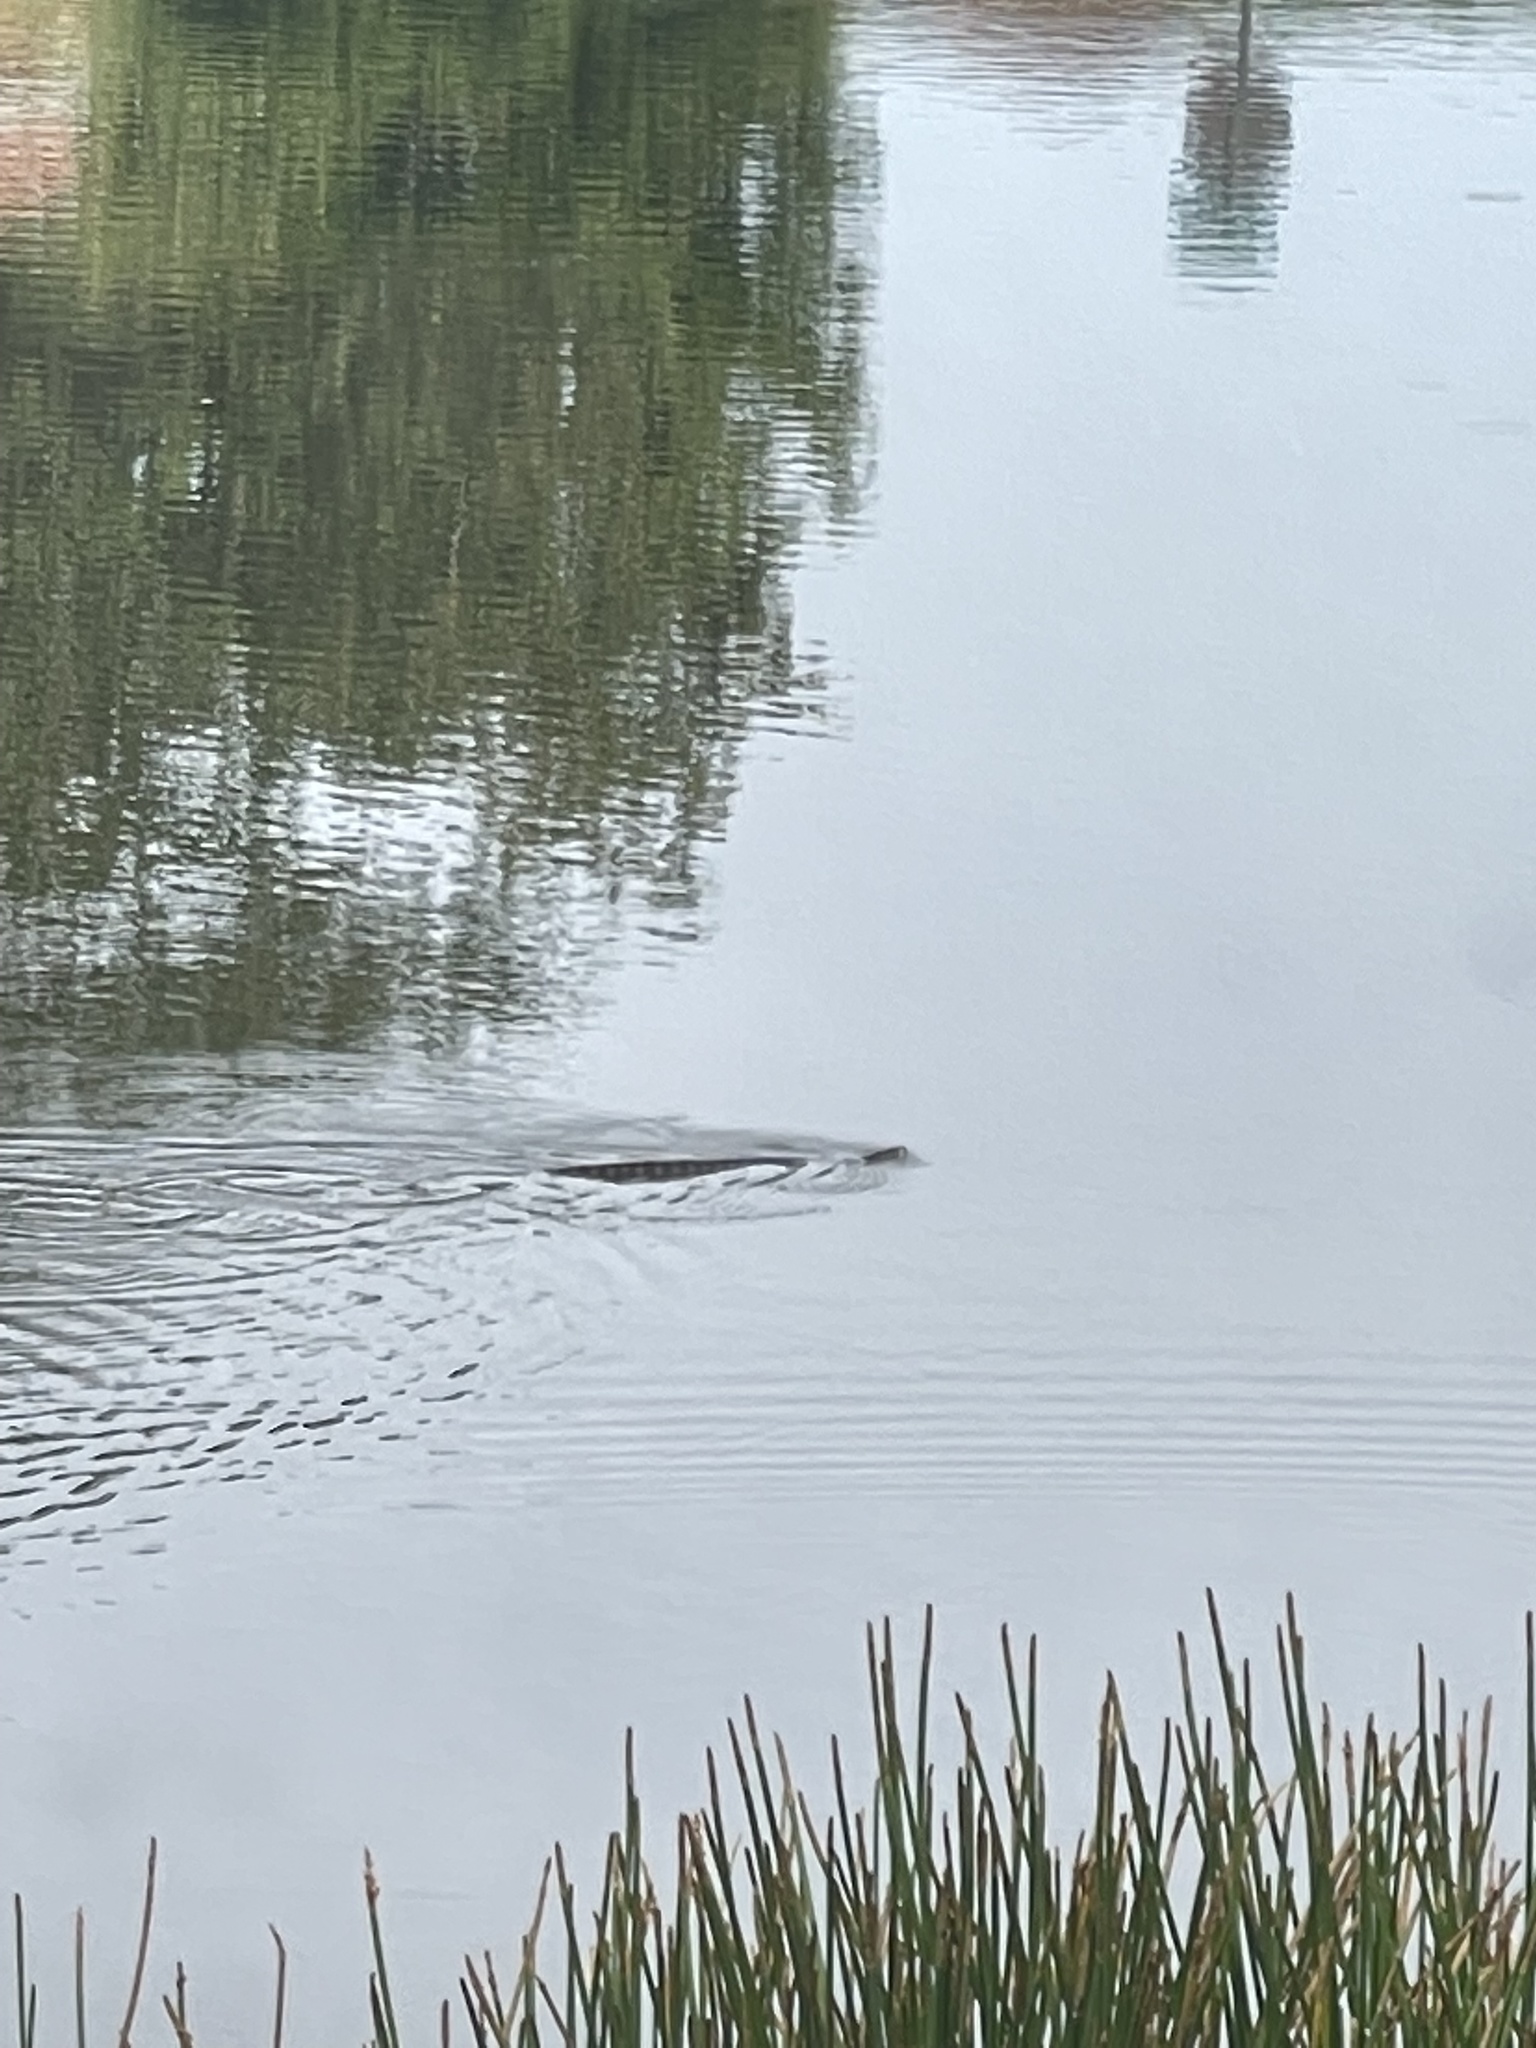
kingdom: Animalia
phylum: Chordata
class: Squamata
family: Colubridae
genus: Nerodia
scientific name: Nerodia fasciata
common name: Southern water snake
